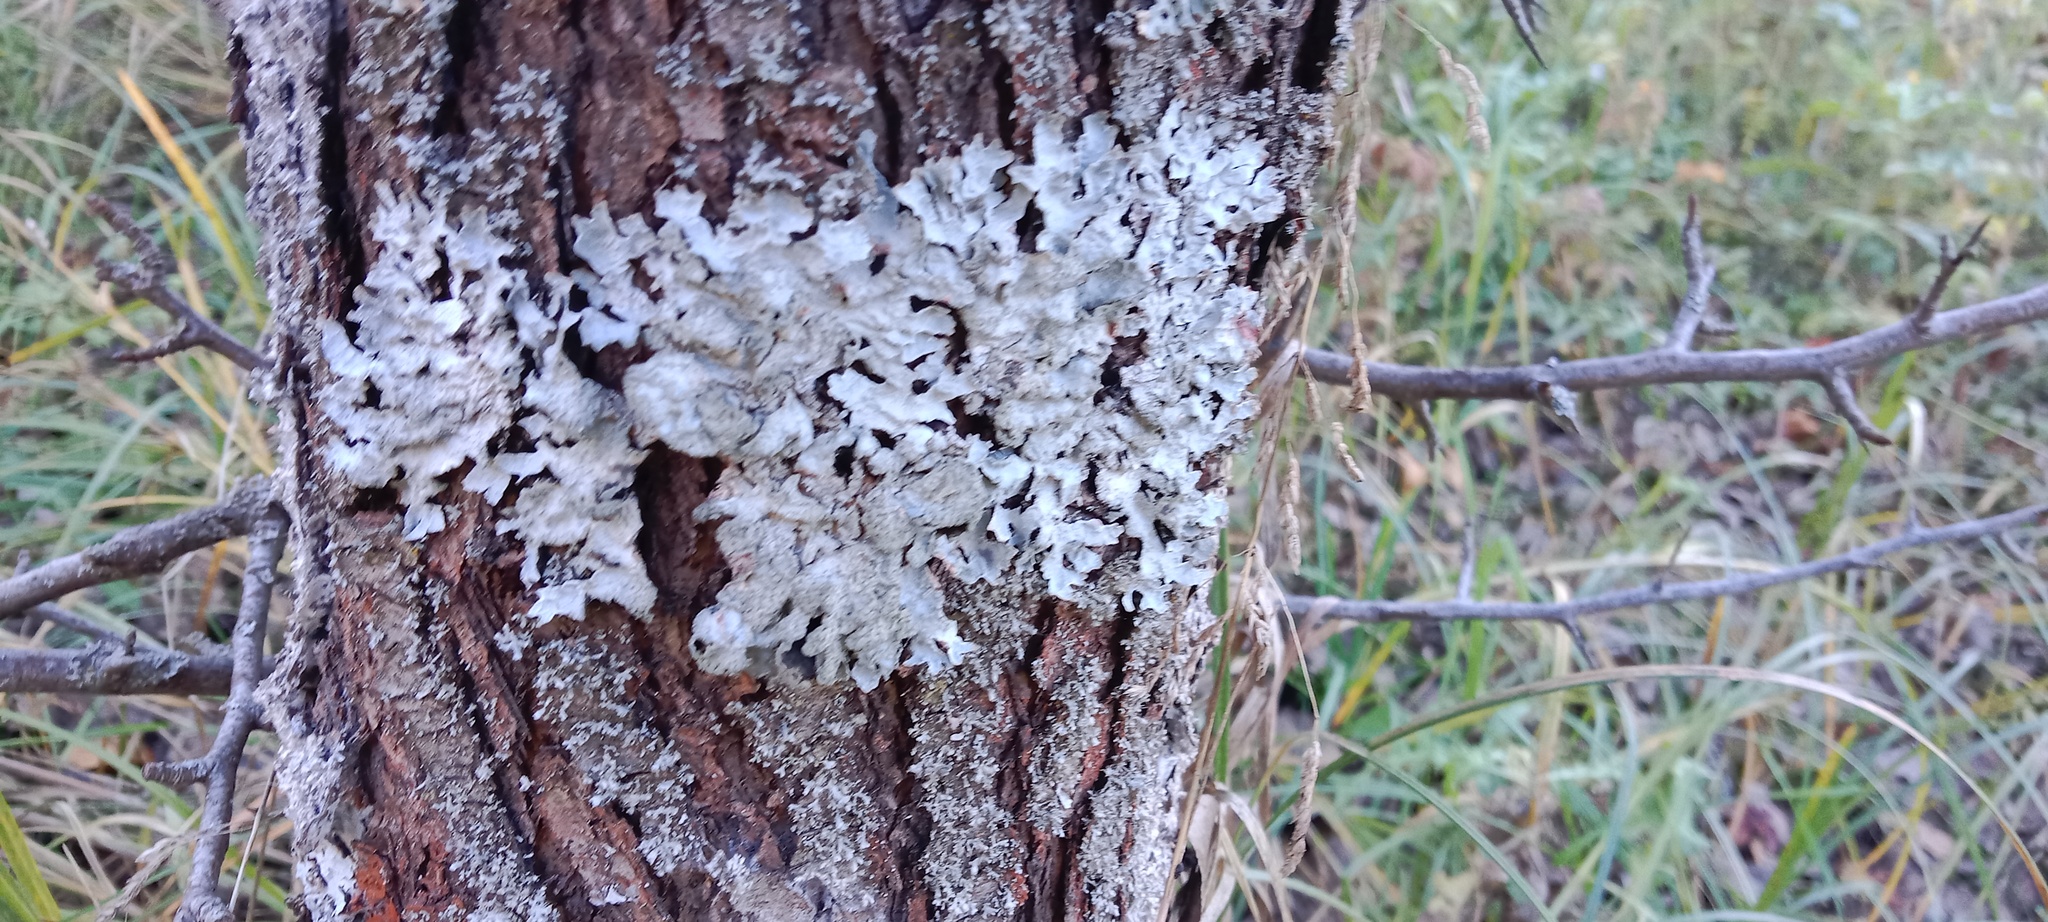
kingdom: Fungi
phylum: Ascomycota
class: Lecanoromycetes
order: Lecanorales
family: Parmeliaceae
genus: Parmelia
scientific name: Parmelia sulcata
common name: Netted shield lichen
